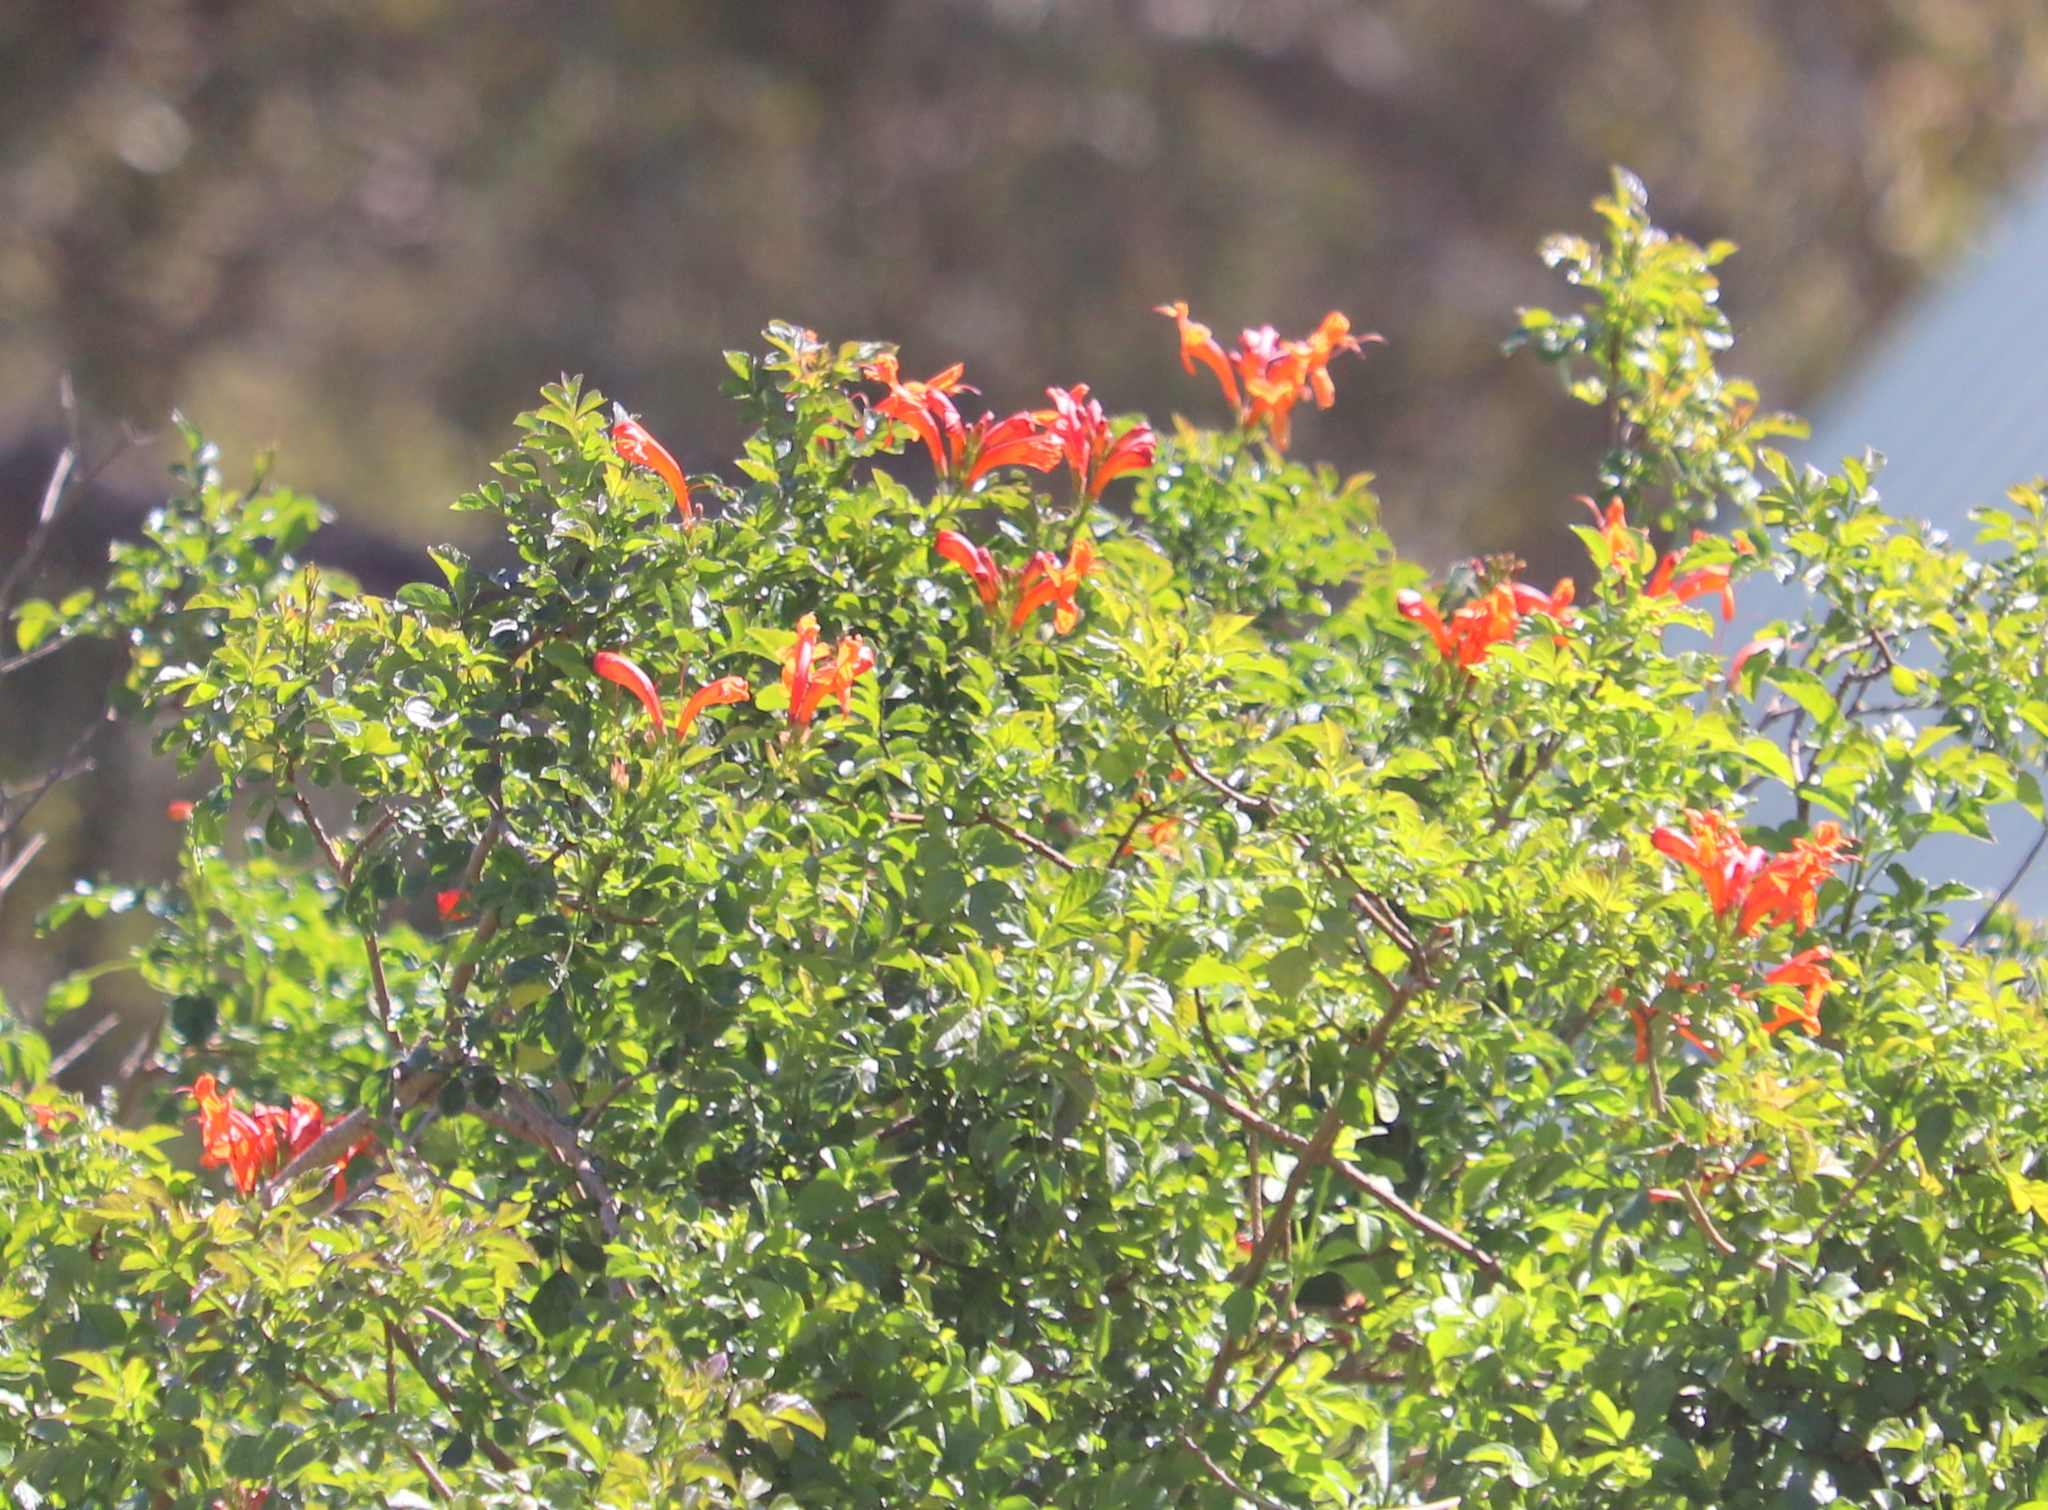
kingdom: Plantae
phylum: Tracheophyta
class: Magnoliopsida
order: Lamiales
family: Bignoniaceae
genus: Tecomaria
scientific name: Tecomaria capensis
